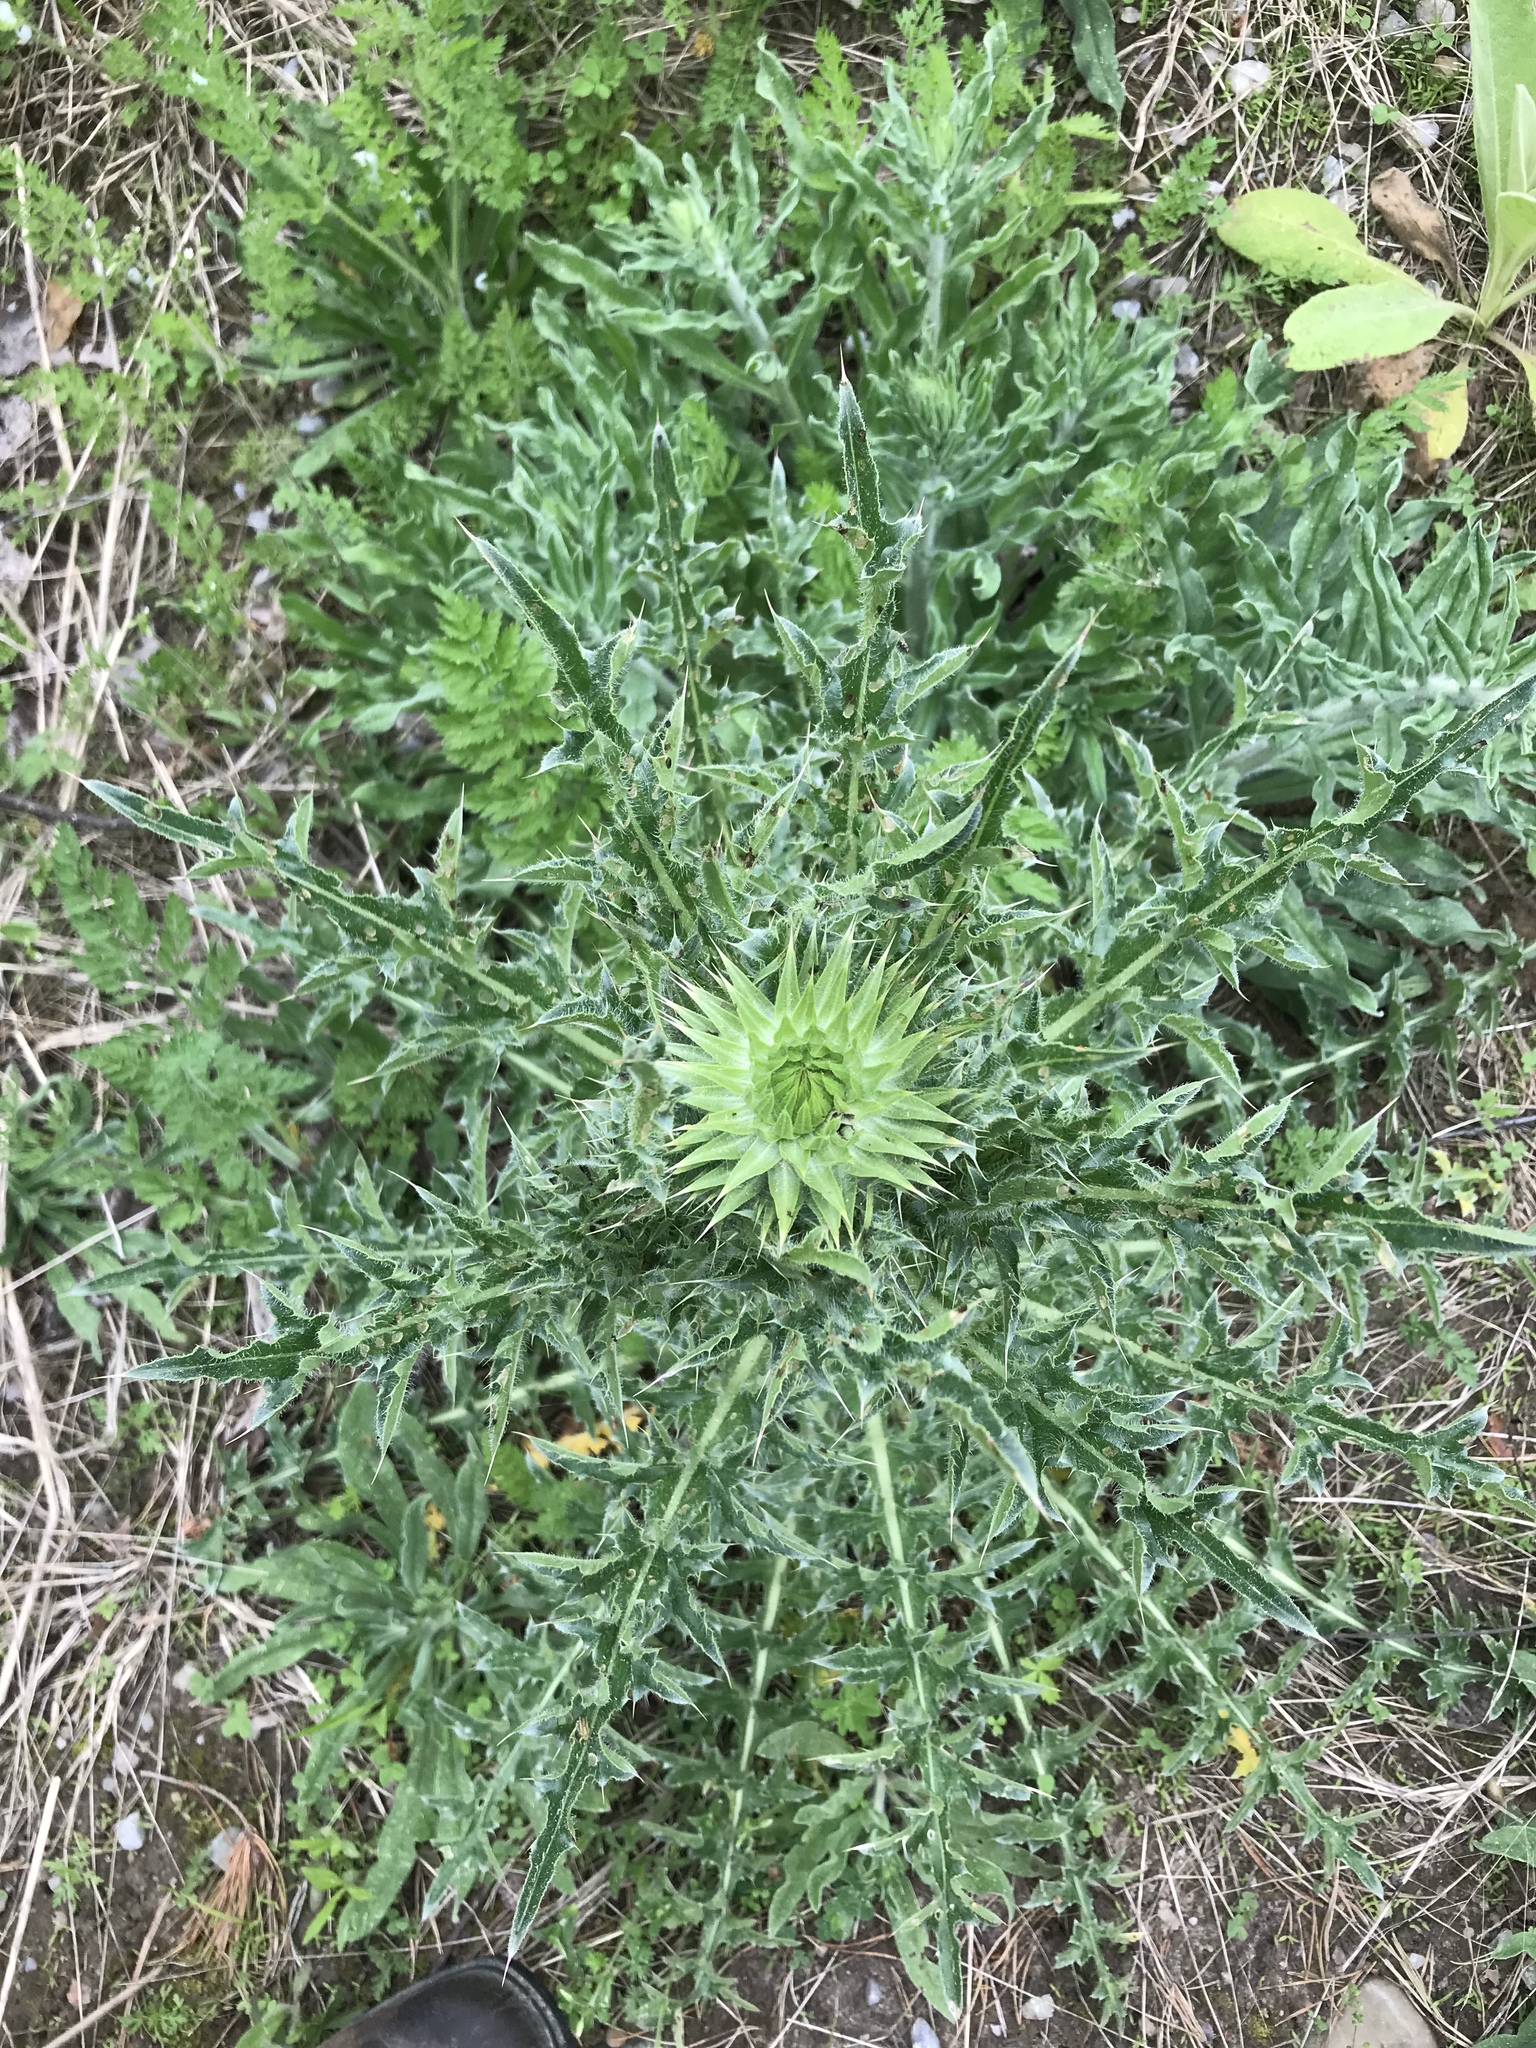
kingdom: Plantae
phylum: Tracheophyta
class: Magnoliopsida
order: Asterales
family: Asteraceae
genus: Carduus
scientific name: Carduus nutans
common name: Musk thistle
